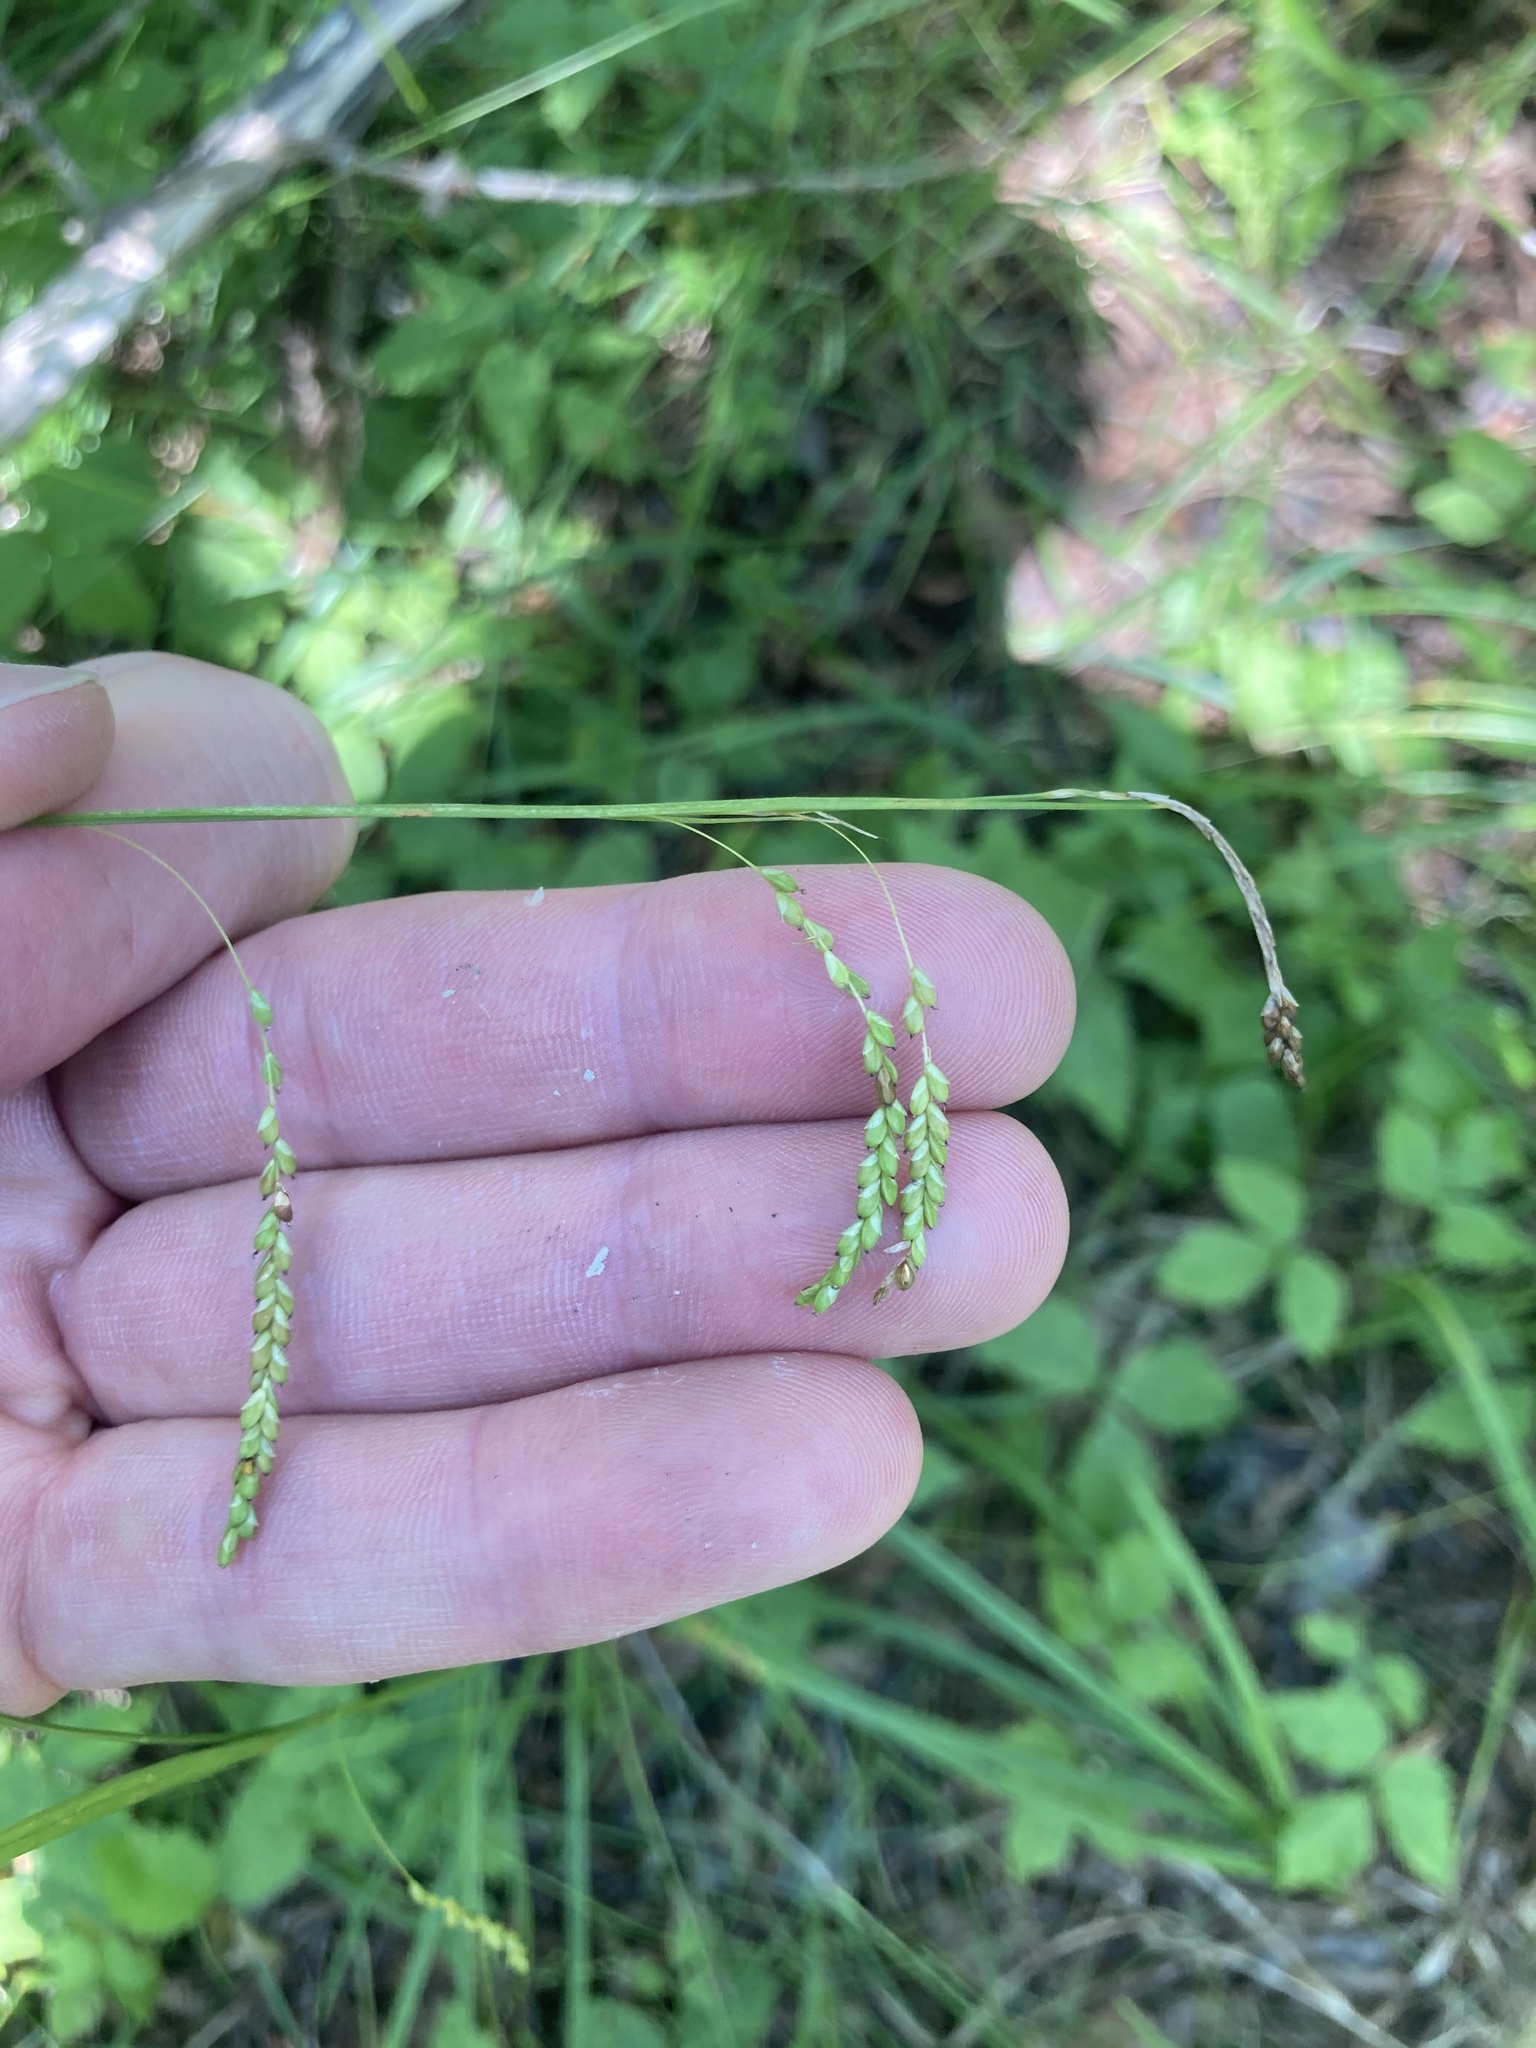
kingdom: Plantae
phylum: Tracheophyta
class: Liliopsida
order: Poales
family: Cyperaceae
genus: Carex
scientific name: Carex gracillima
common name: Graceful sedge
